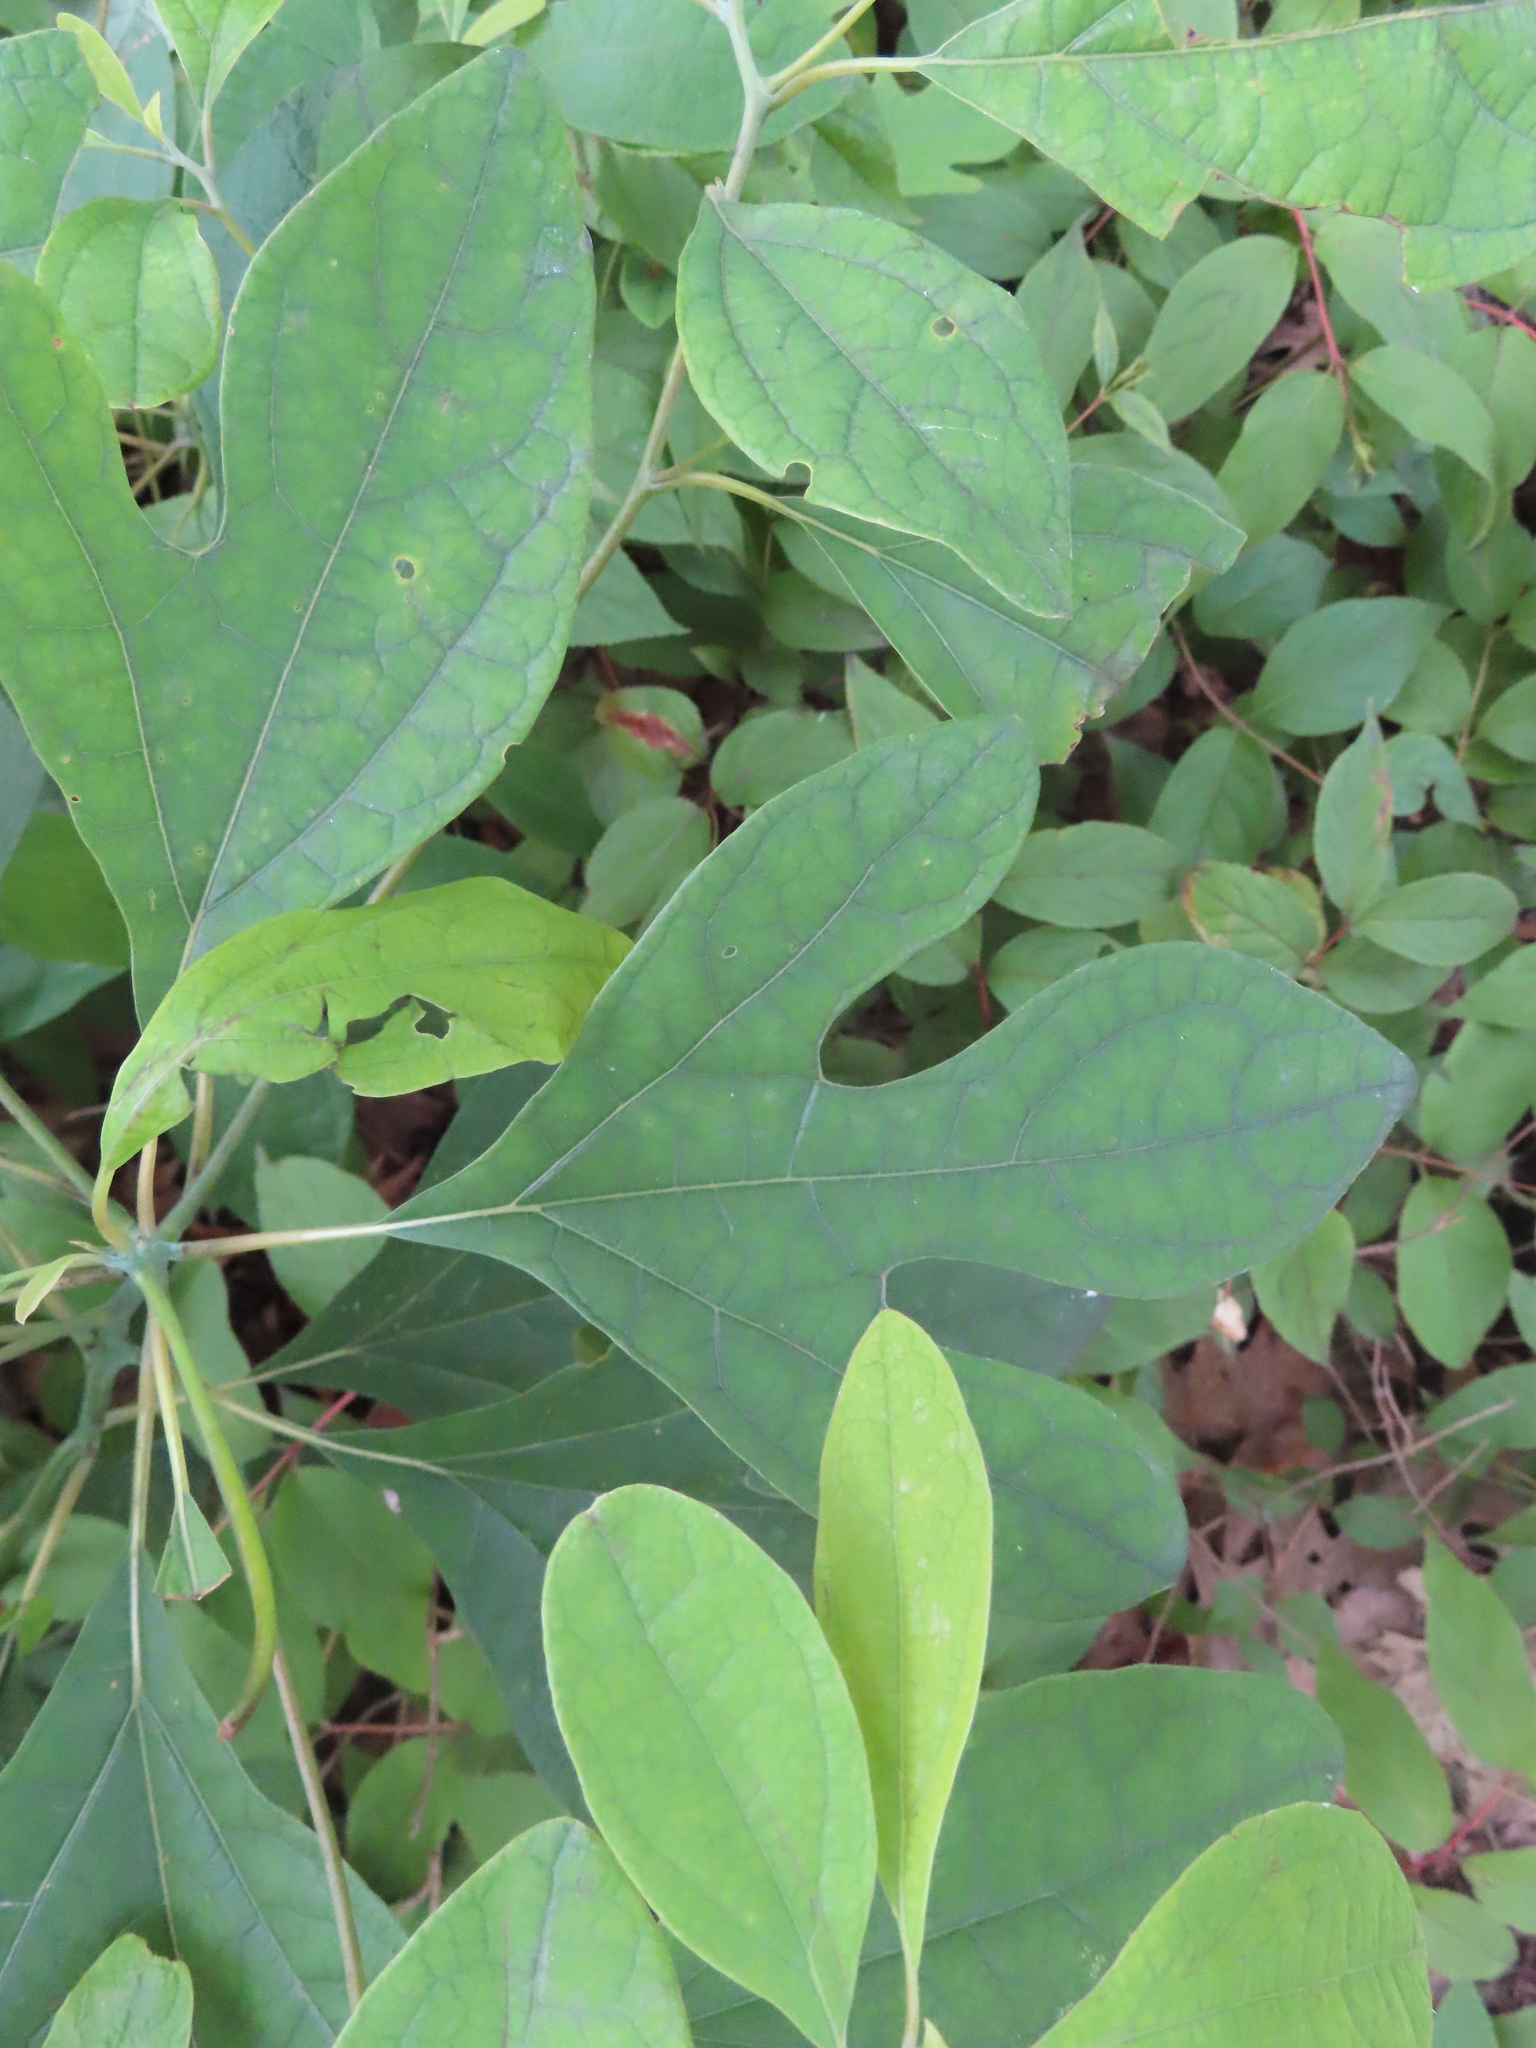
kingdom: Plantae
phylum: Tracheophyta
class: Magnoliopsida
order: Laurales
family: Lauraceae
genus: Sassafras
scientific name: Sassafras albidum
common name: Sassafras
